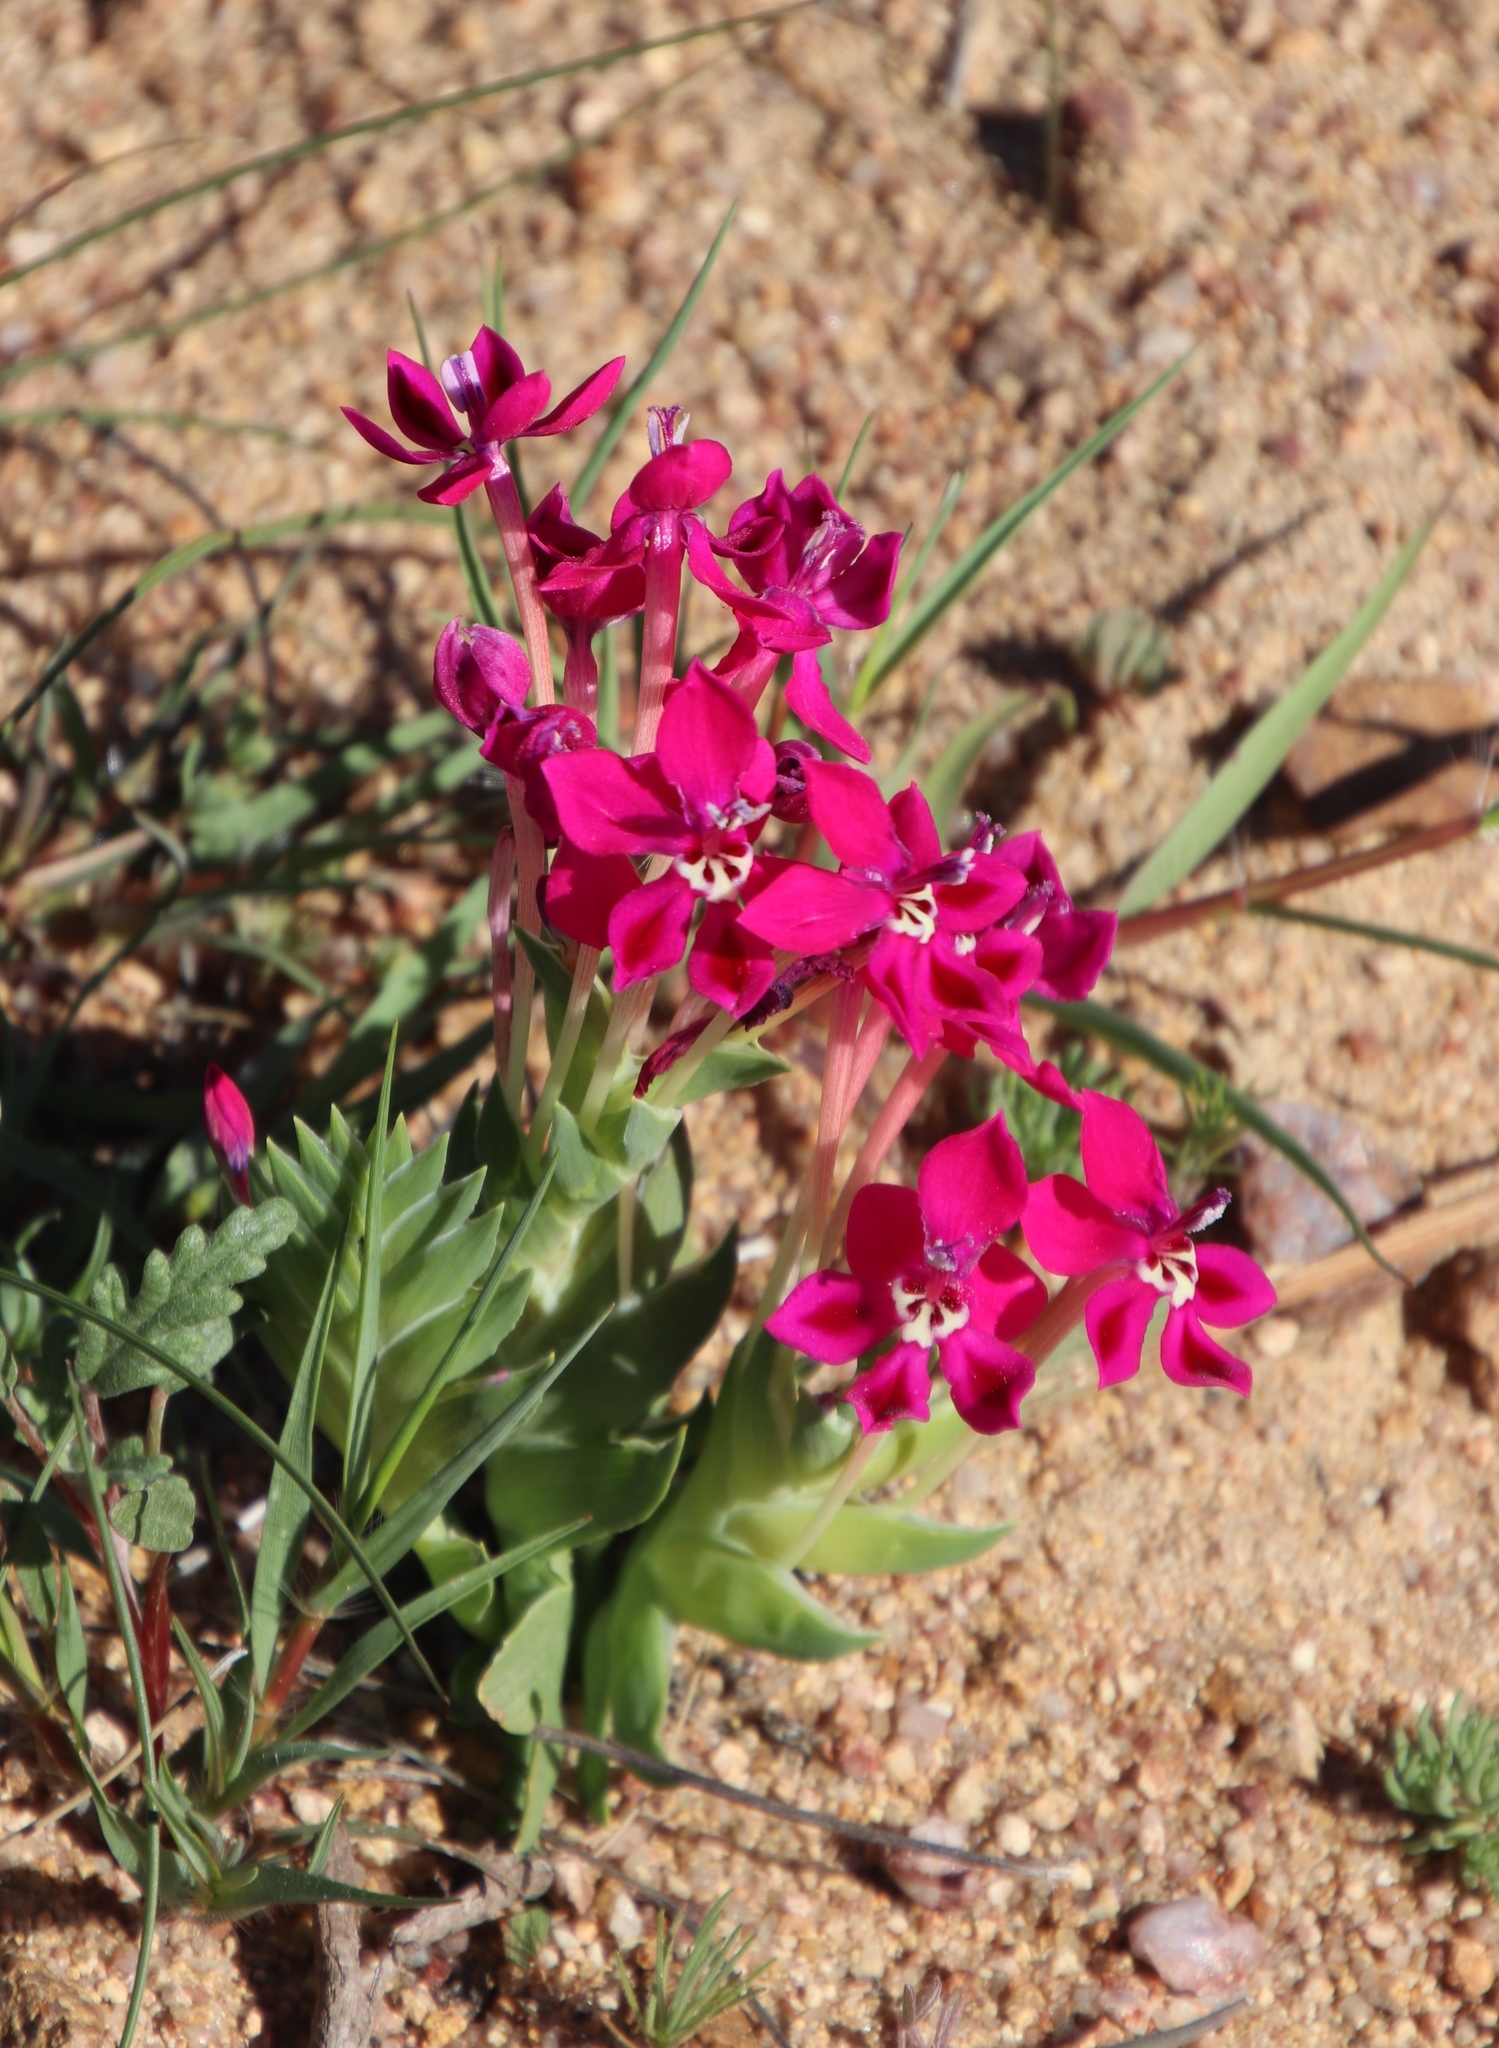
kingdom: Plantae
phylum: Tracheophyta
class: Liliopsida
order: Asparagales
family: Iridaceae
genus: Lapeirousia
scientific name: Lapeirousia silenoides
